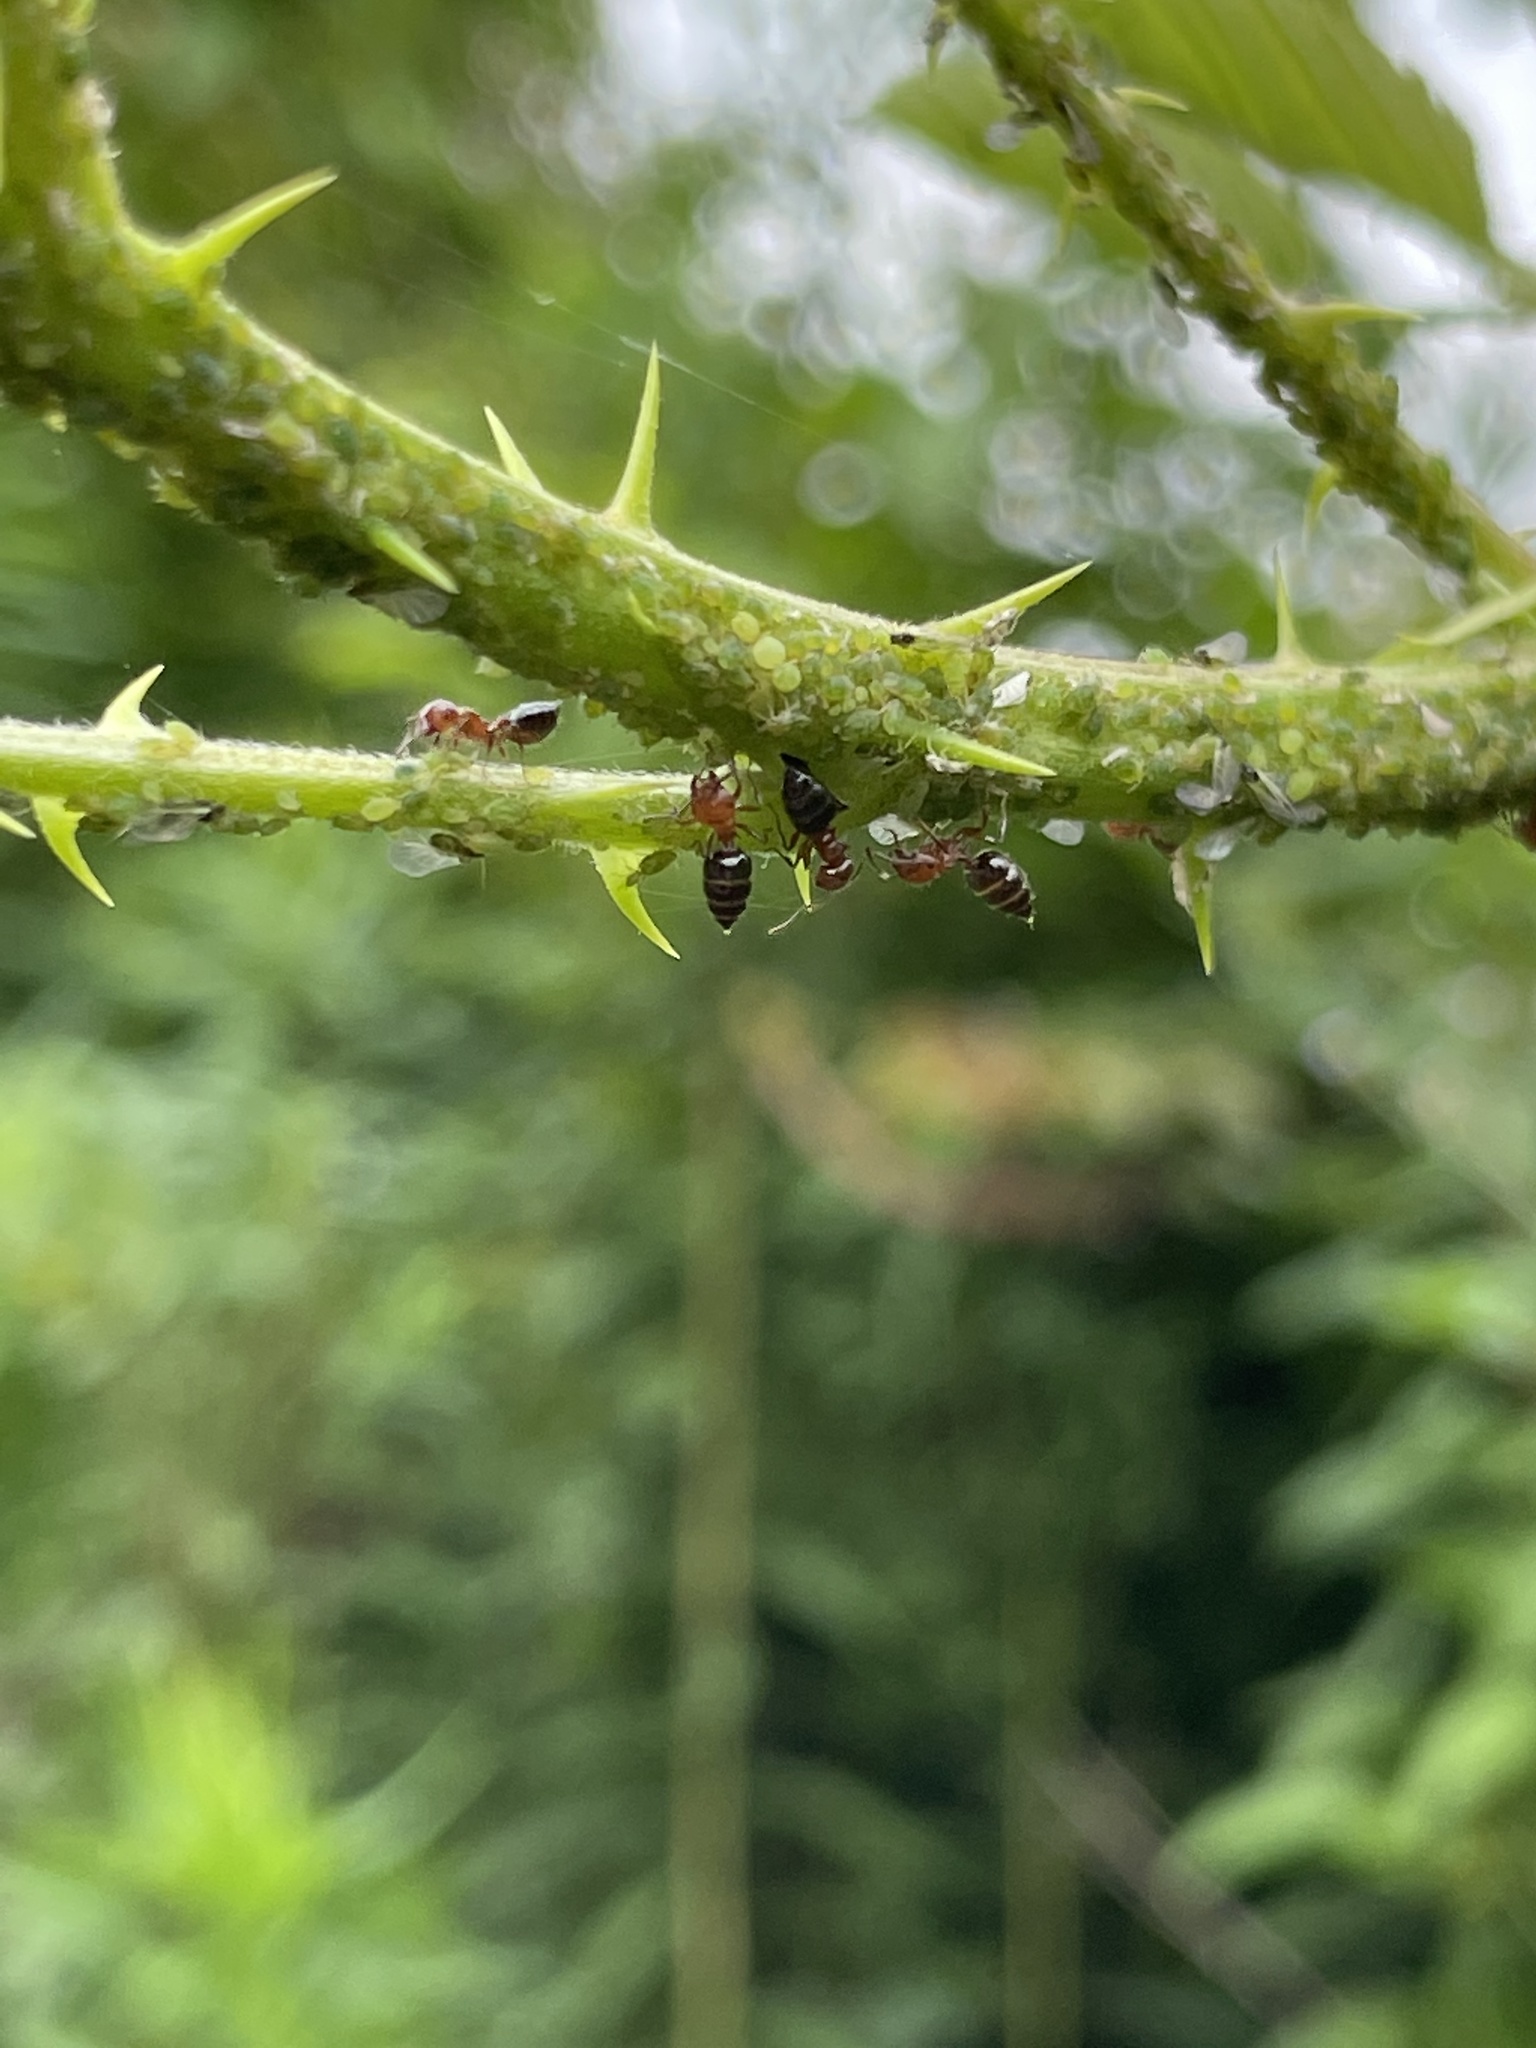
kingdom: Animalia
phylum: Arthropoda
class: Insecta
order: Hymenoptera
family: Formicidae
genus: Crematogaster
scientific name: Crematogaster laeviuscula
